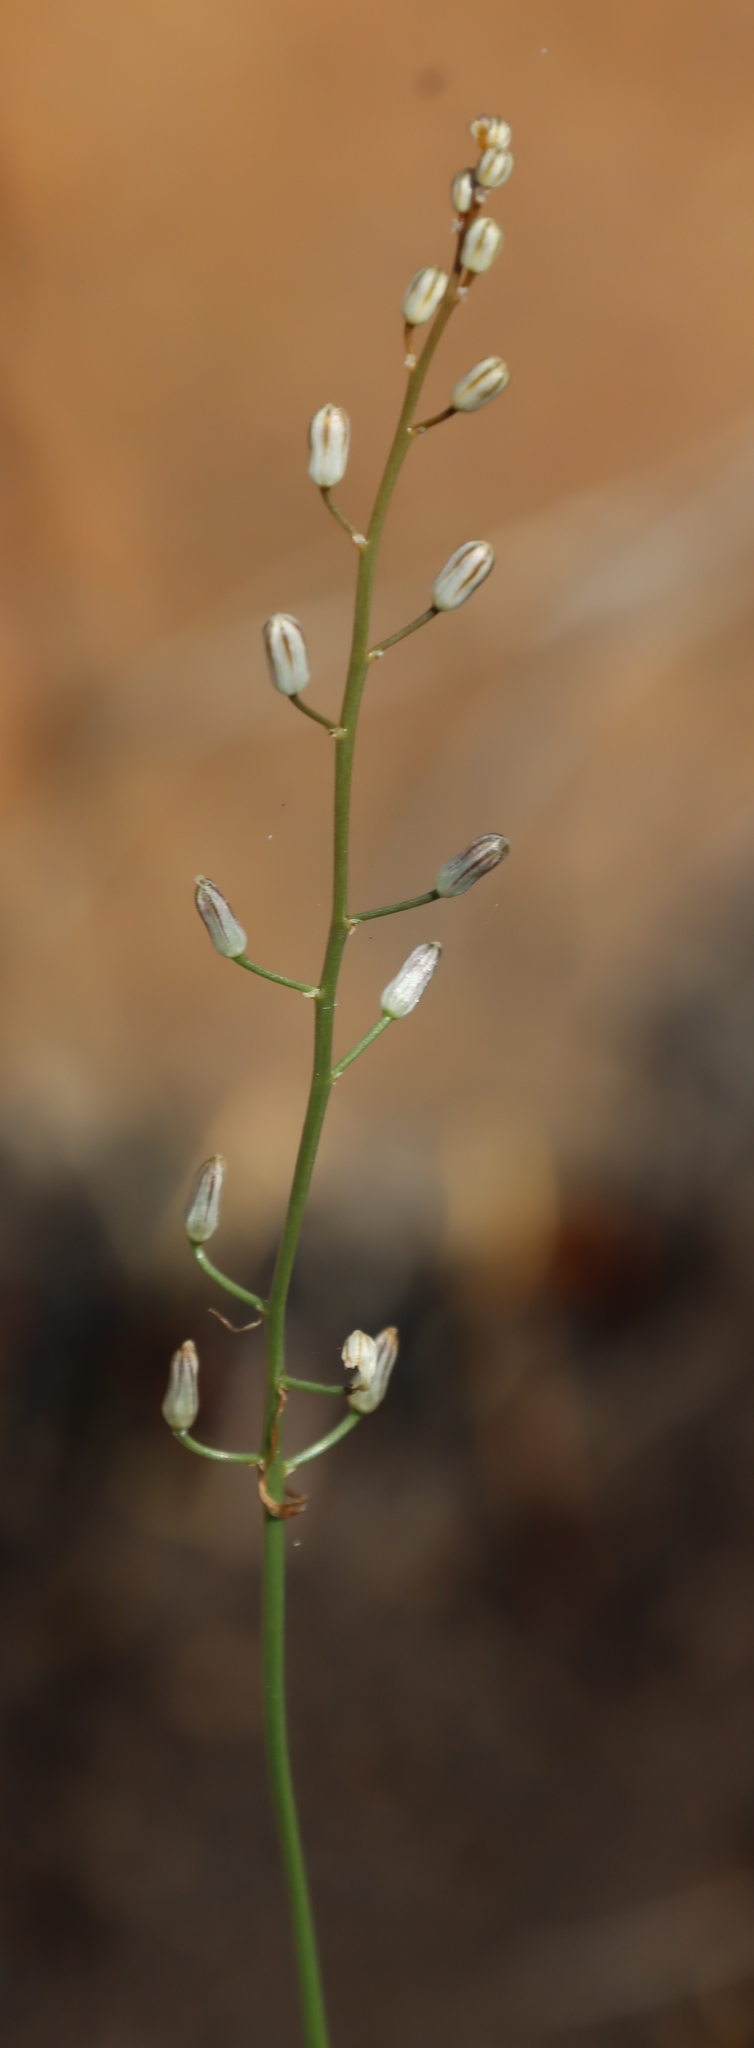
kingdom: Plantae
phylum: Tracheophyta
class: Liliopsida
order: Asparagales
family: Asparagaceae
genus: Drimia
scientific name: Drimia calcarata
